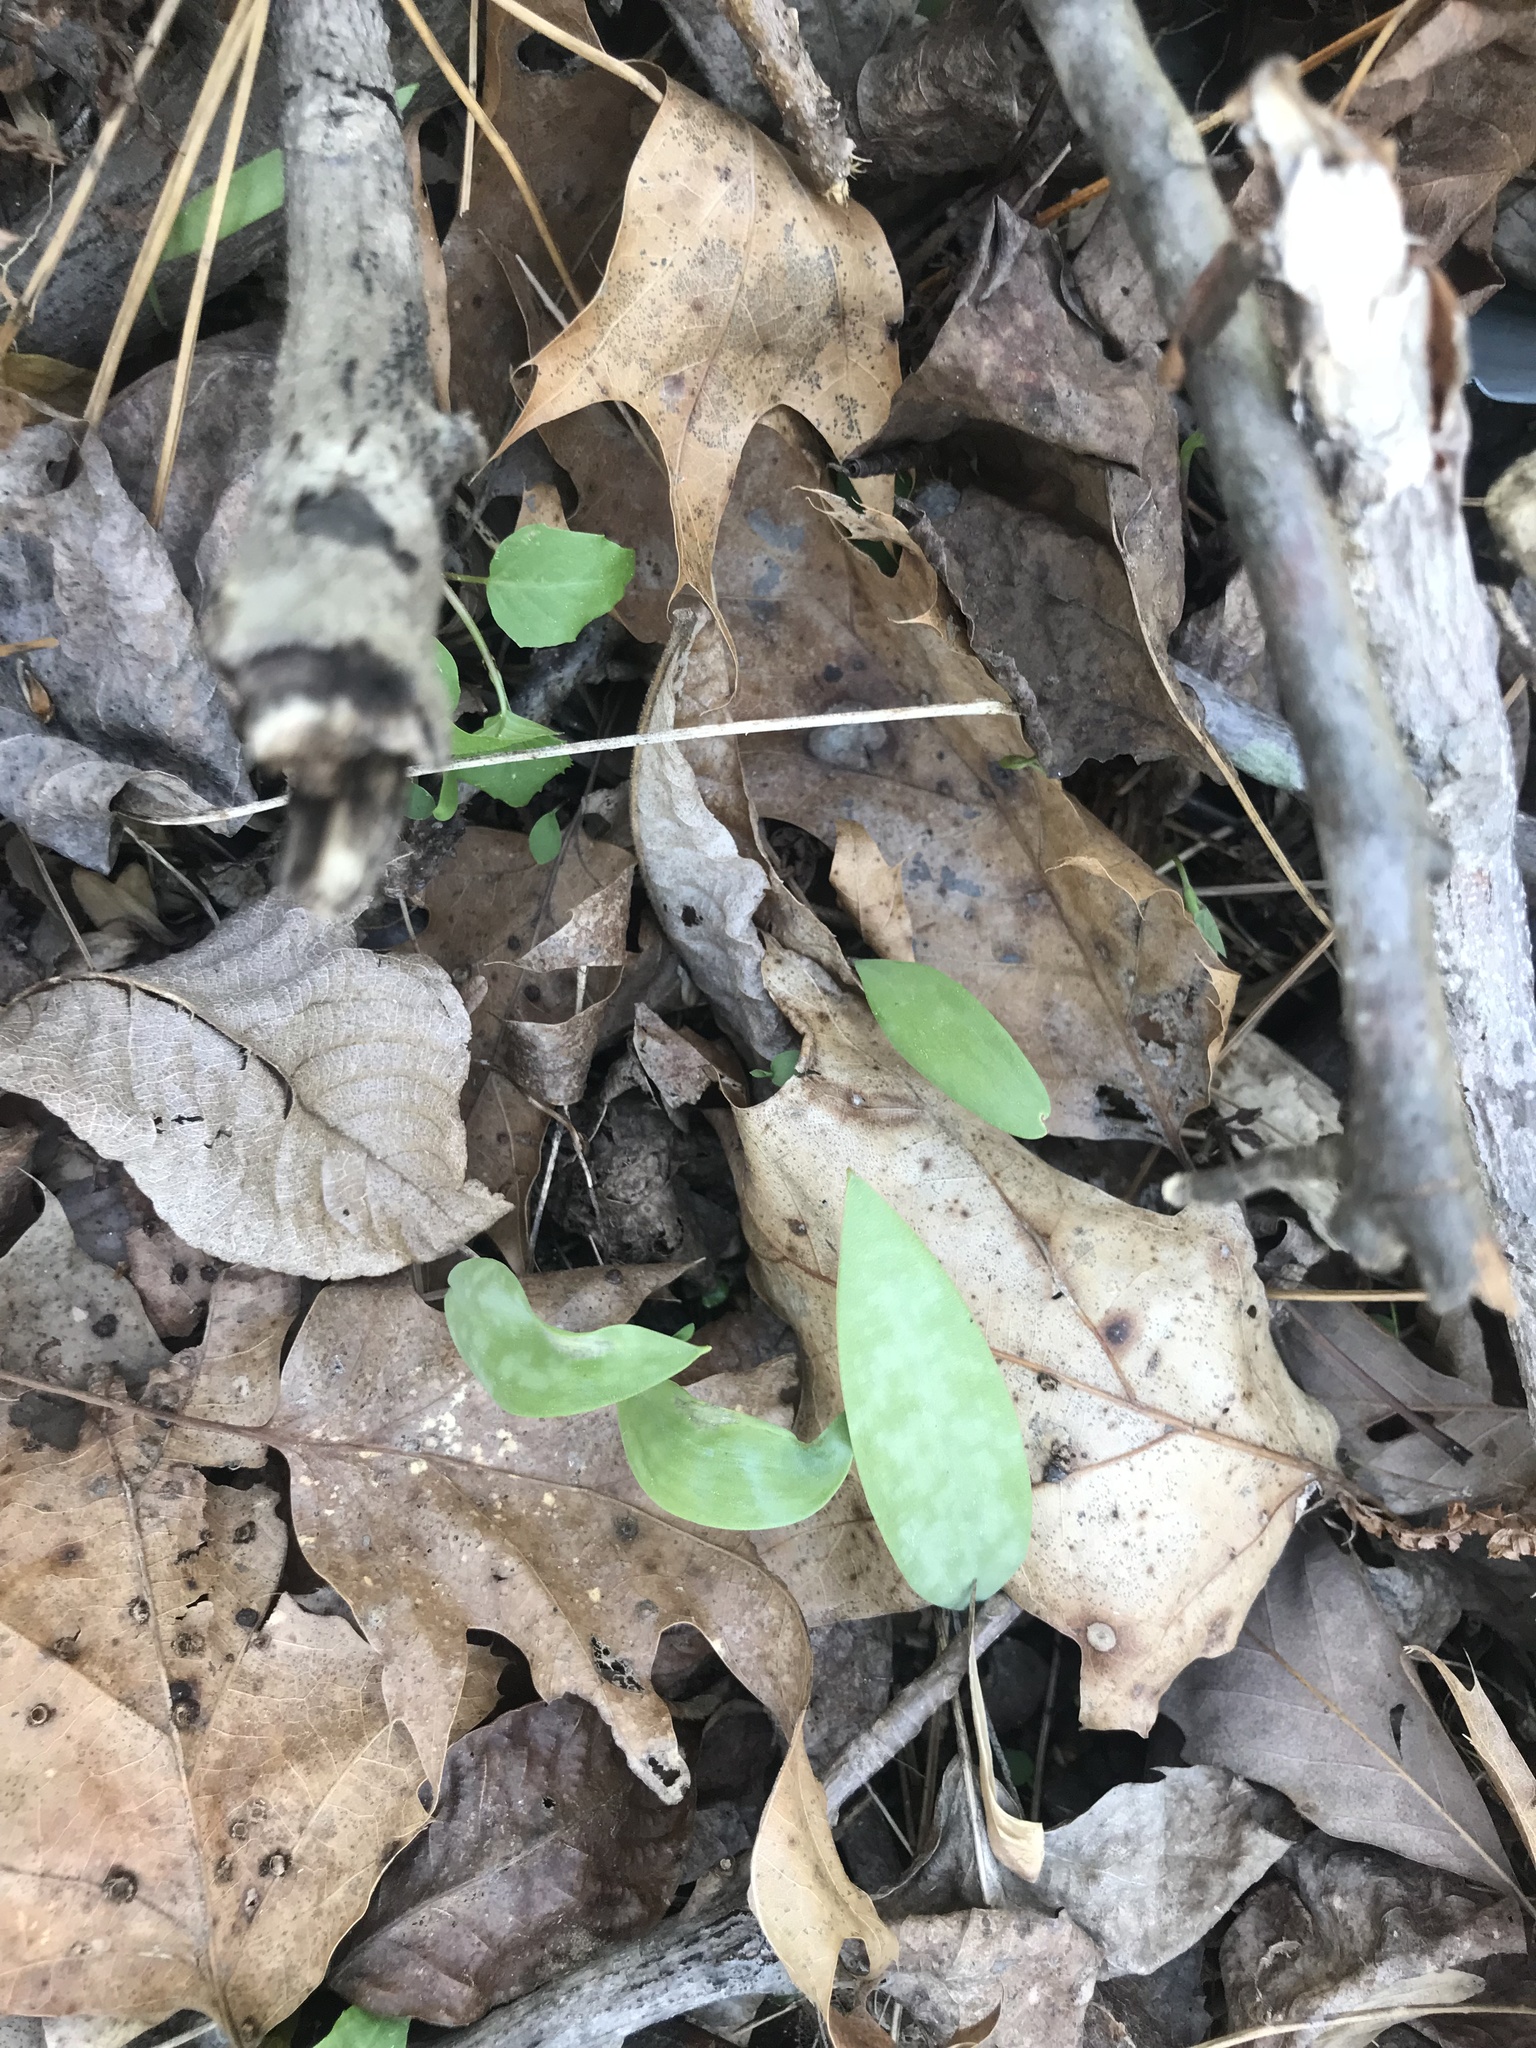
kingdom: Plantae
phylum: Tracheophyta
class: Liliopsida
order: Liliales
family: Liliaceae
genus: Erythronium
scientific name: Erythronium americanum
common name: Yellow adder's-tongue
